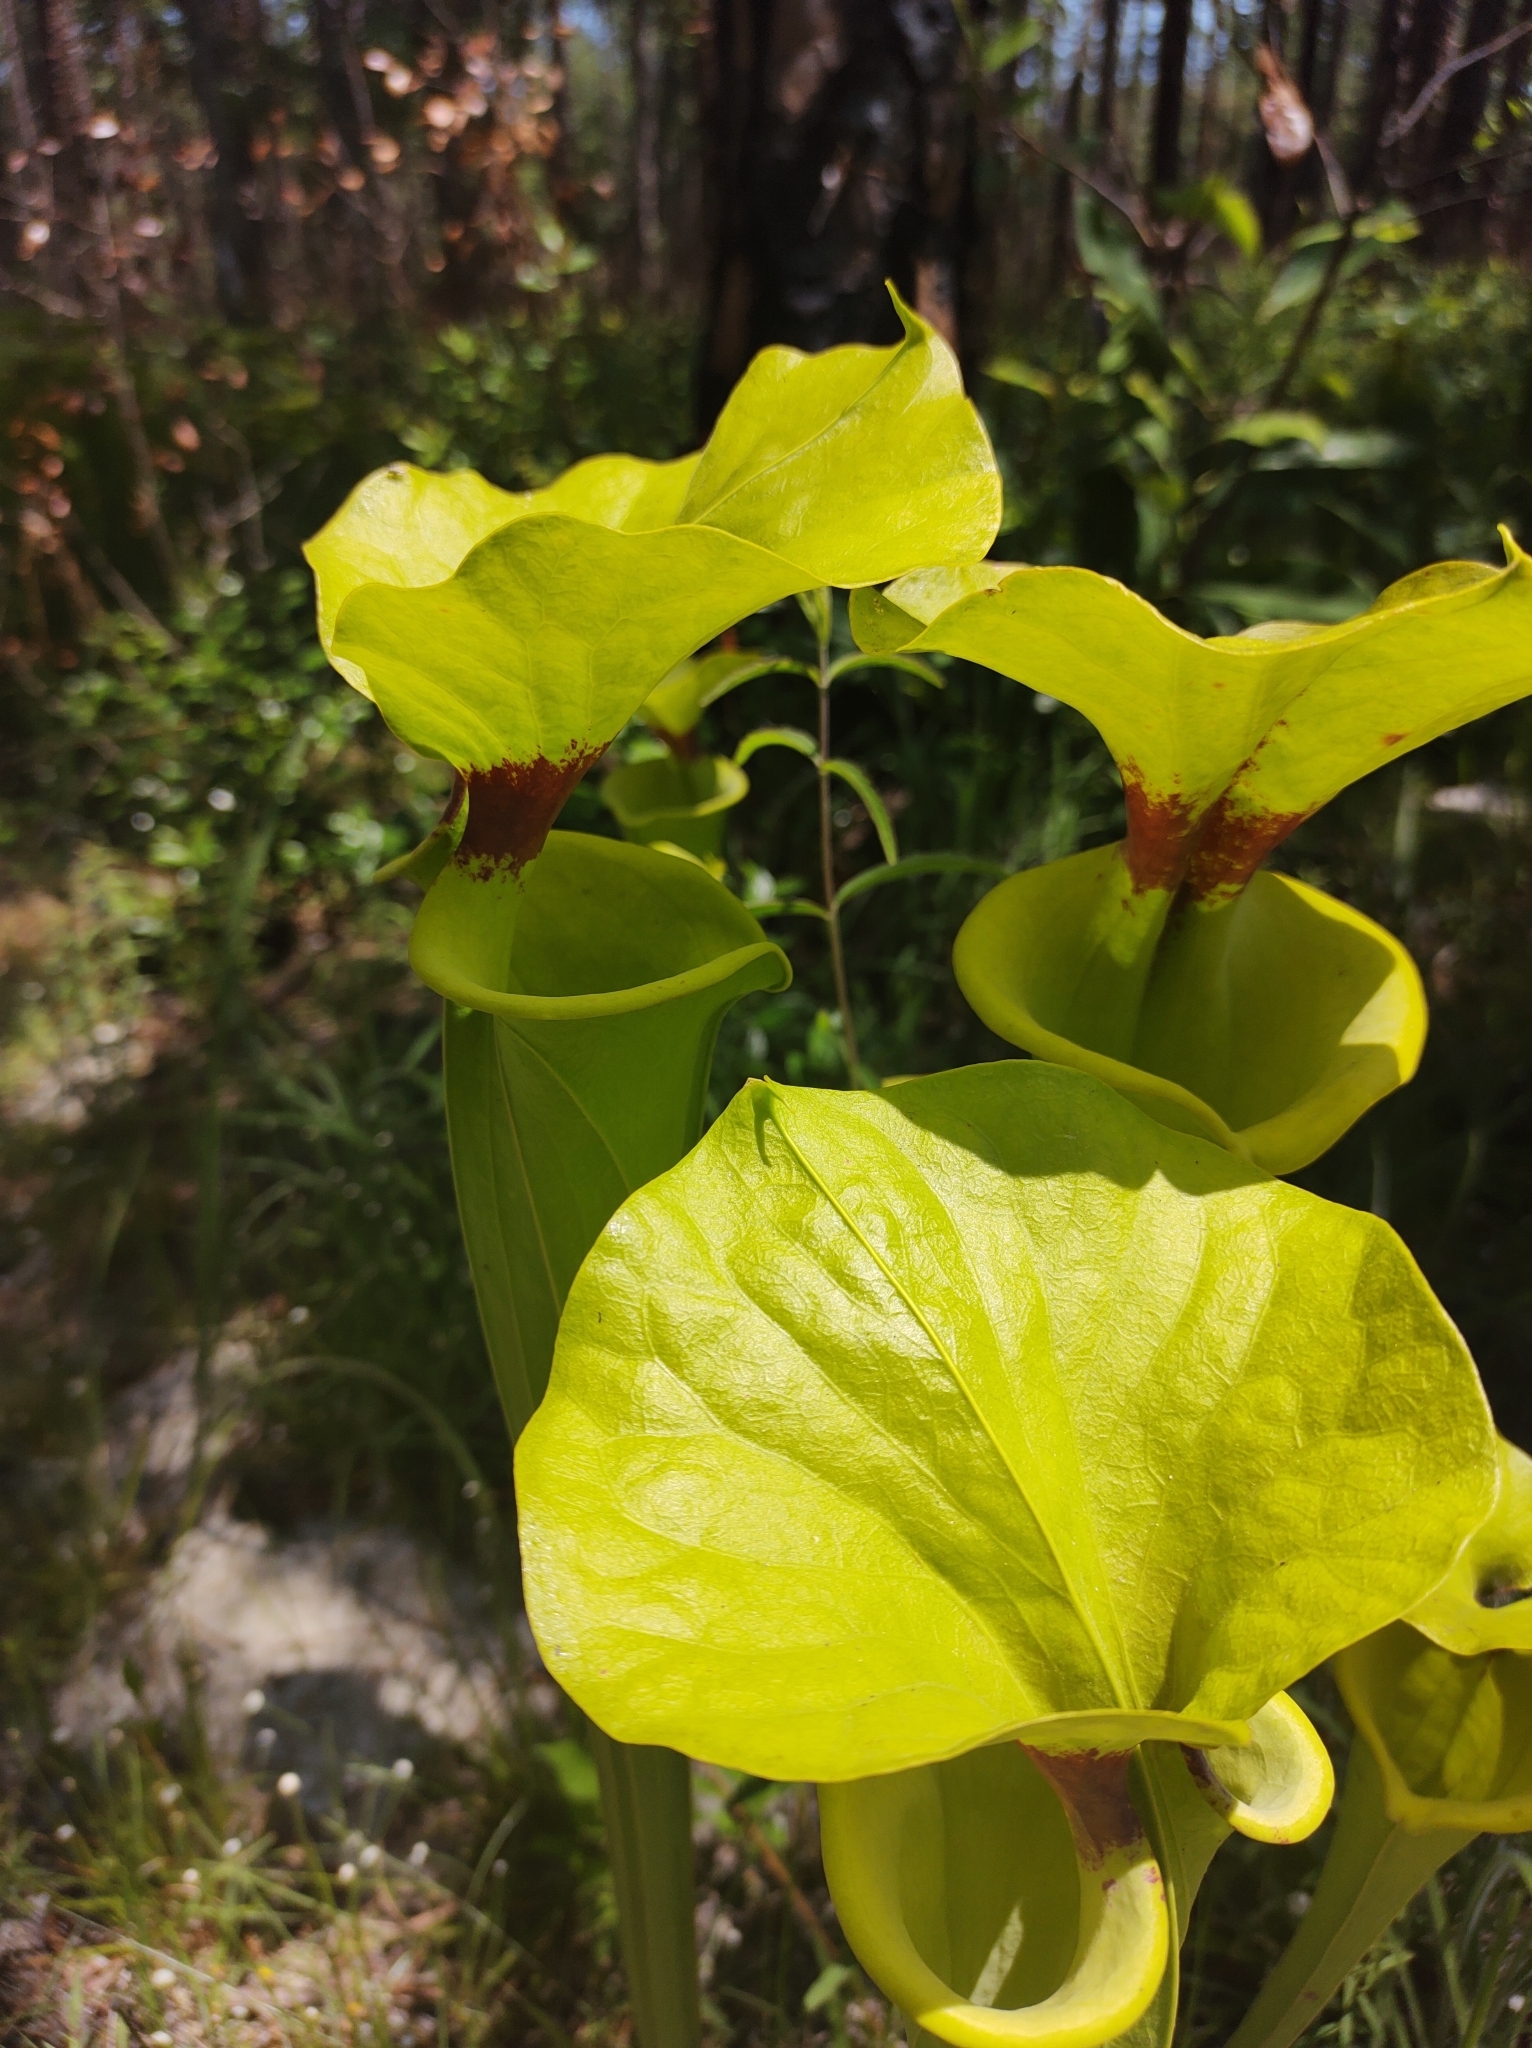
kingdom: Plantae
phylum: Tracheophyta
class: Magnoliopsida
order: Ericales
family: Sarraceniaceae
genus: Sarracenia
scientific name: Sarracenia flava
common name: Trumpets
